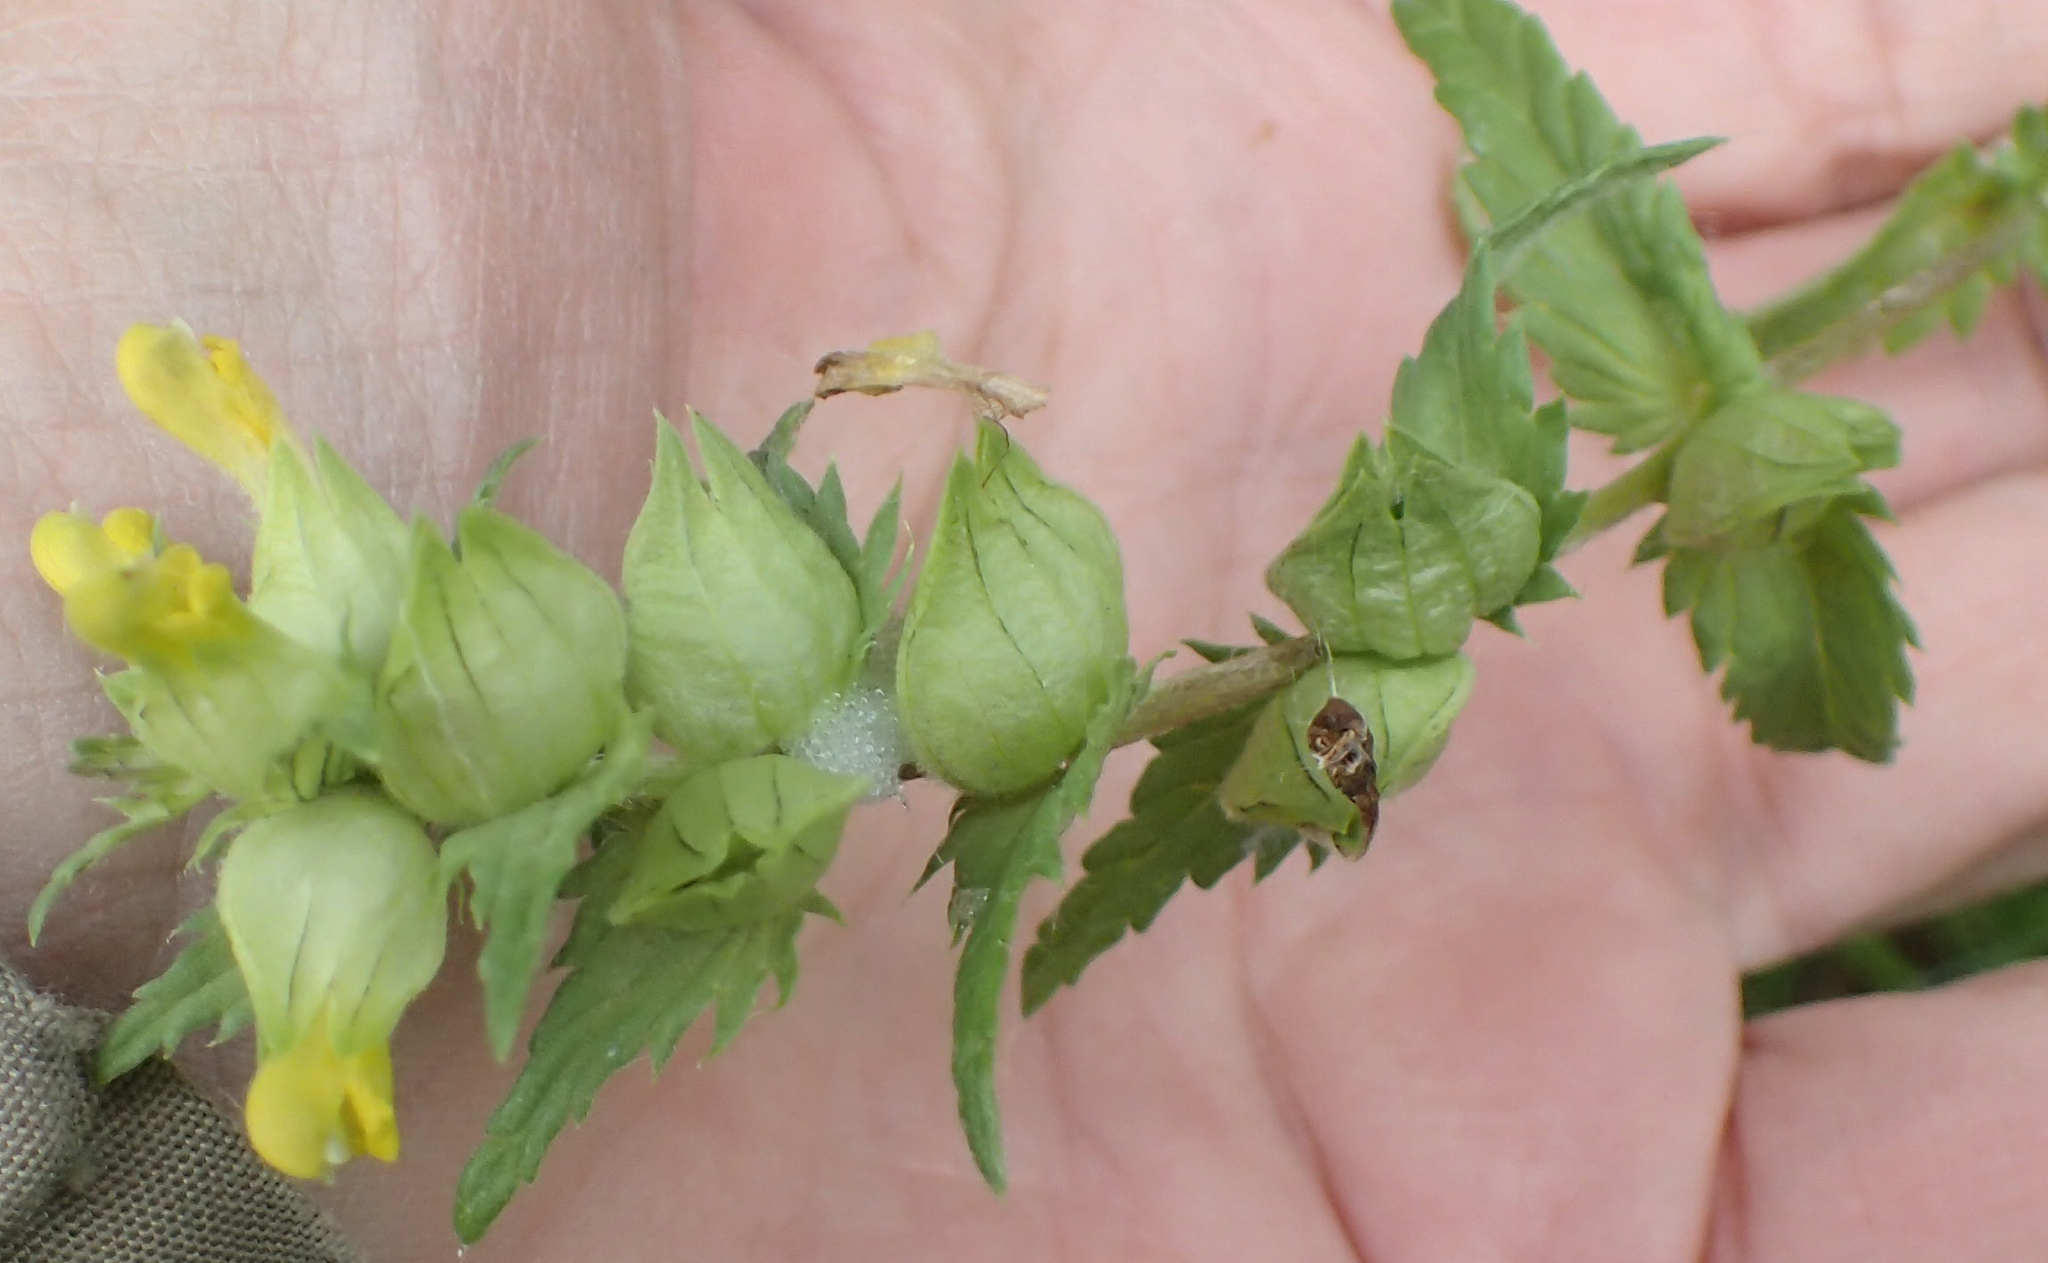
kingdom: Plantae
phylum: Tracheophyta
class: Magnoliopsida
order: Lamiales
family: Orobanchaceae
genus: Rhinanthus
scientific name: Rhinanthus minor
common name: Yellow-rattle
